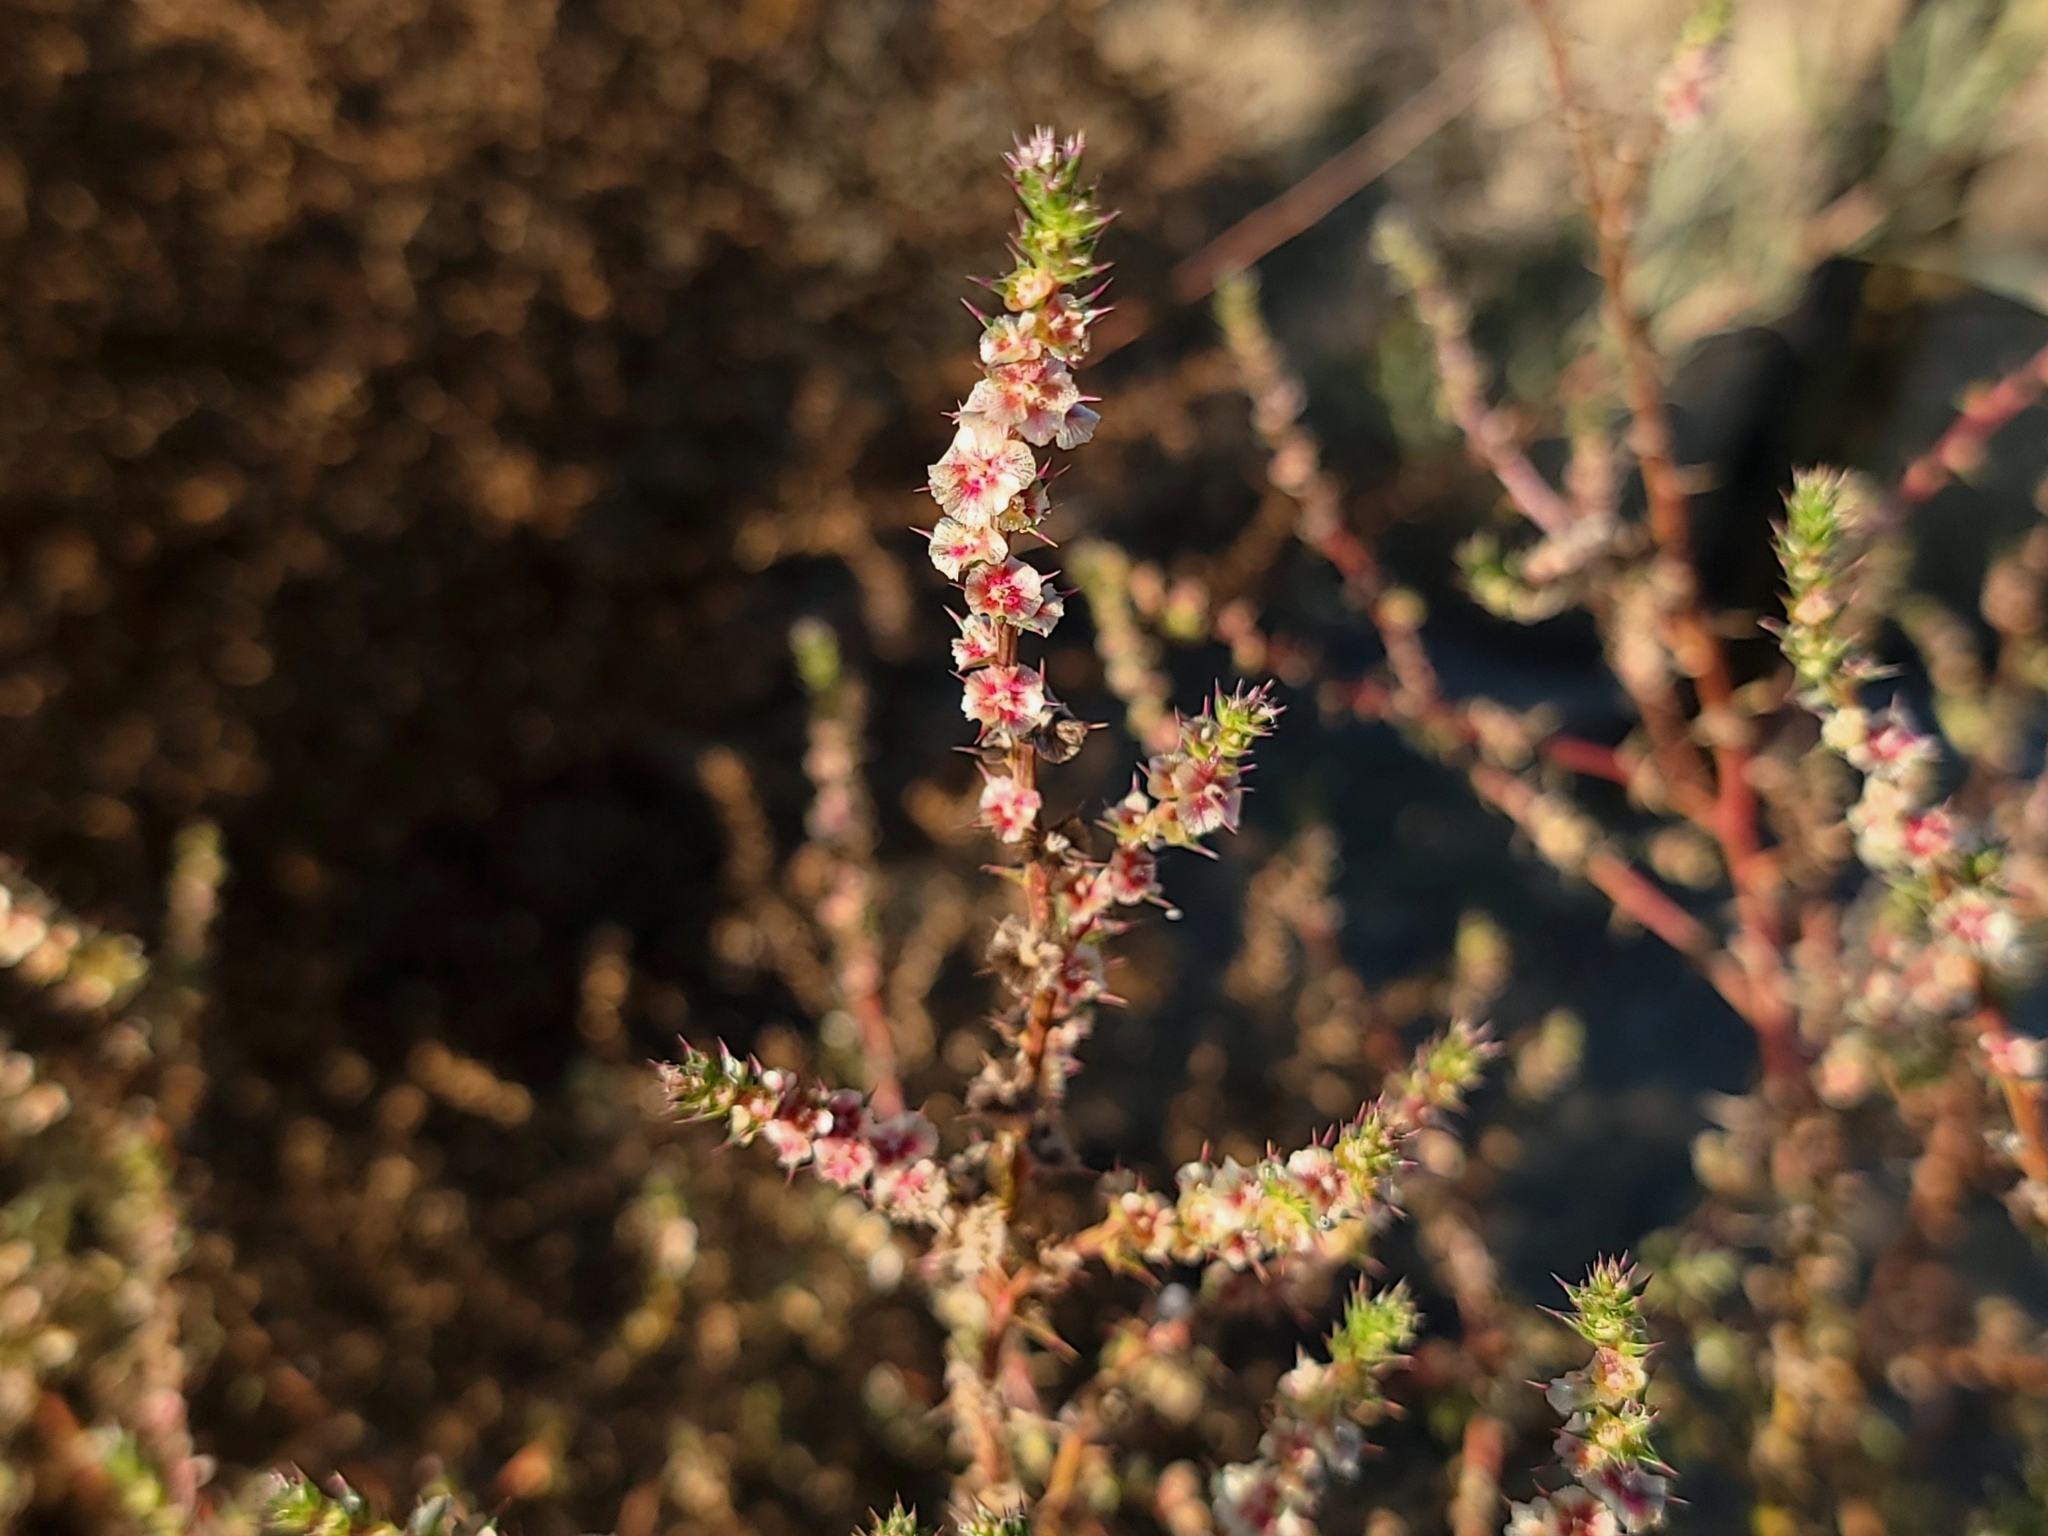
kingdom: Plantae
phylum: Tracheophyta
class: Magnoliopsida
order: Caryophyllales
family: Amaranthaceae
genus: Salsola
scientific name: Salsola tragus
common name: Prickly russian thistle
